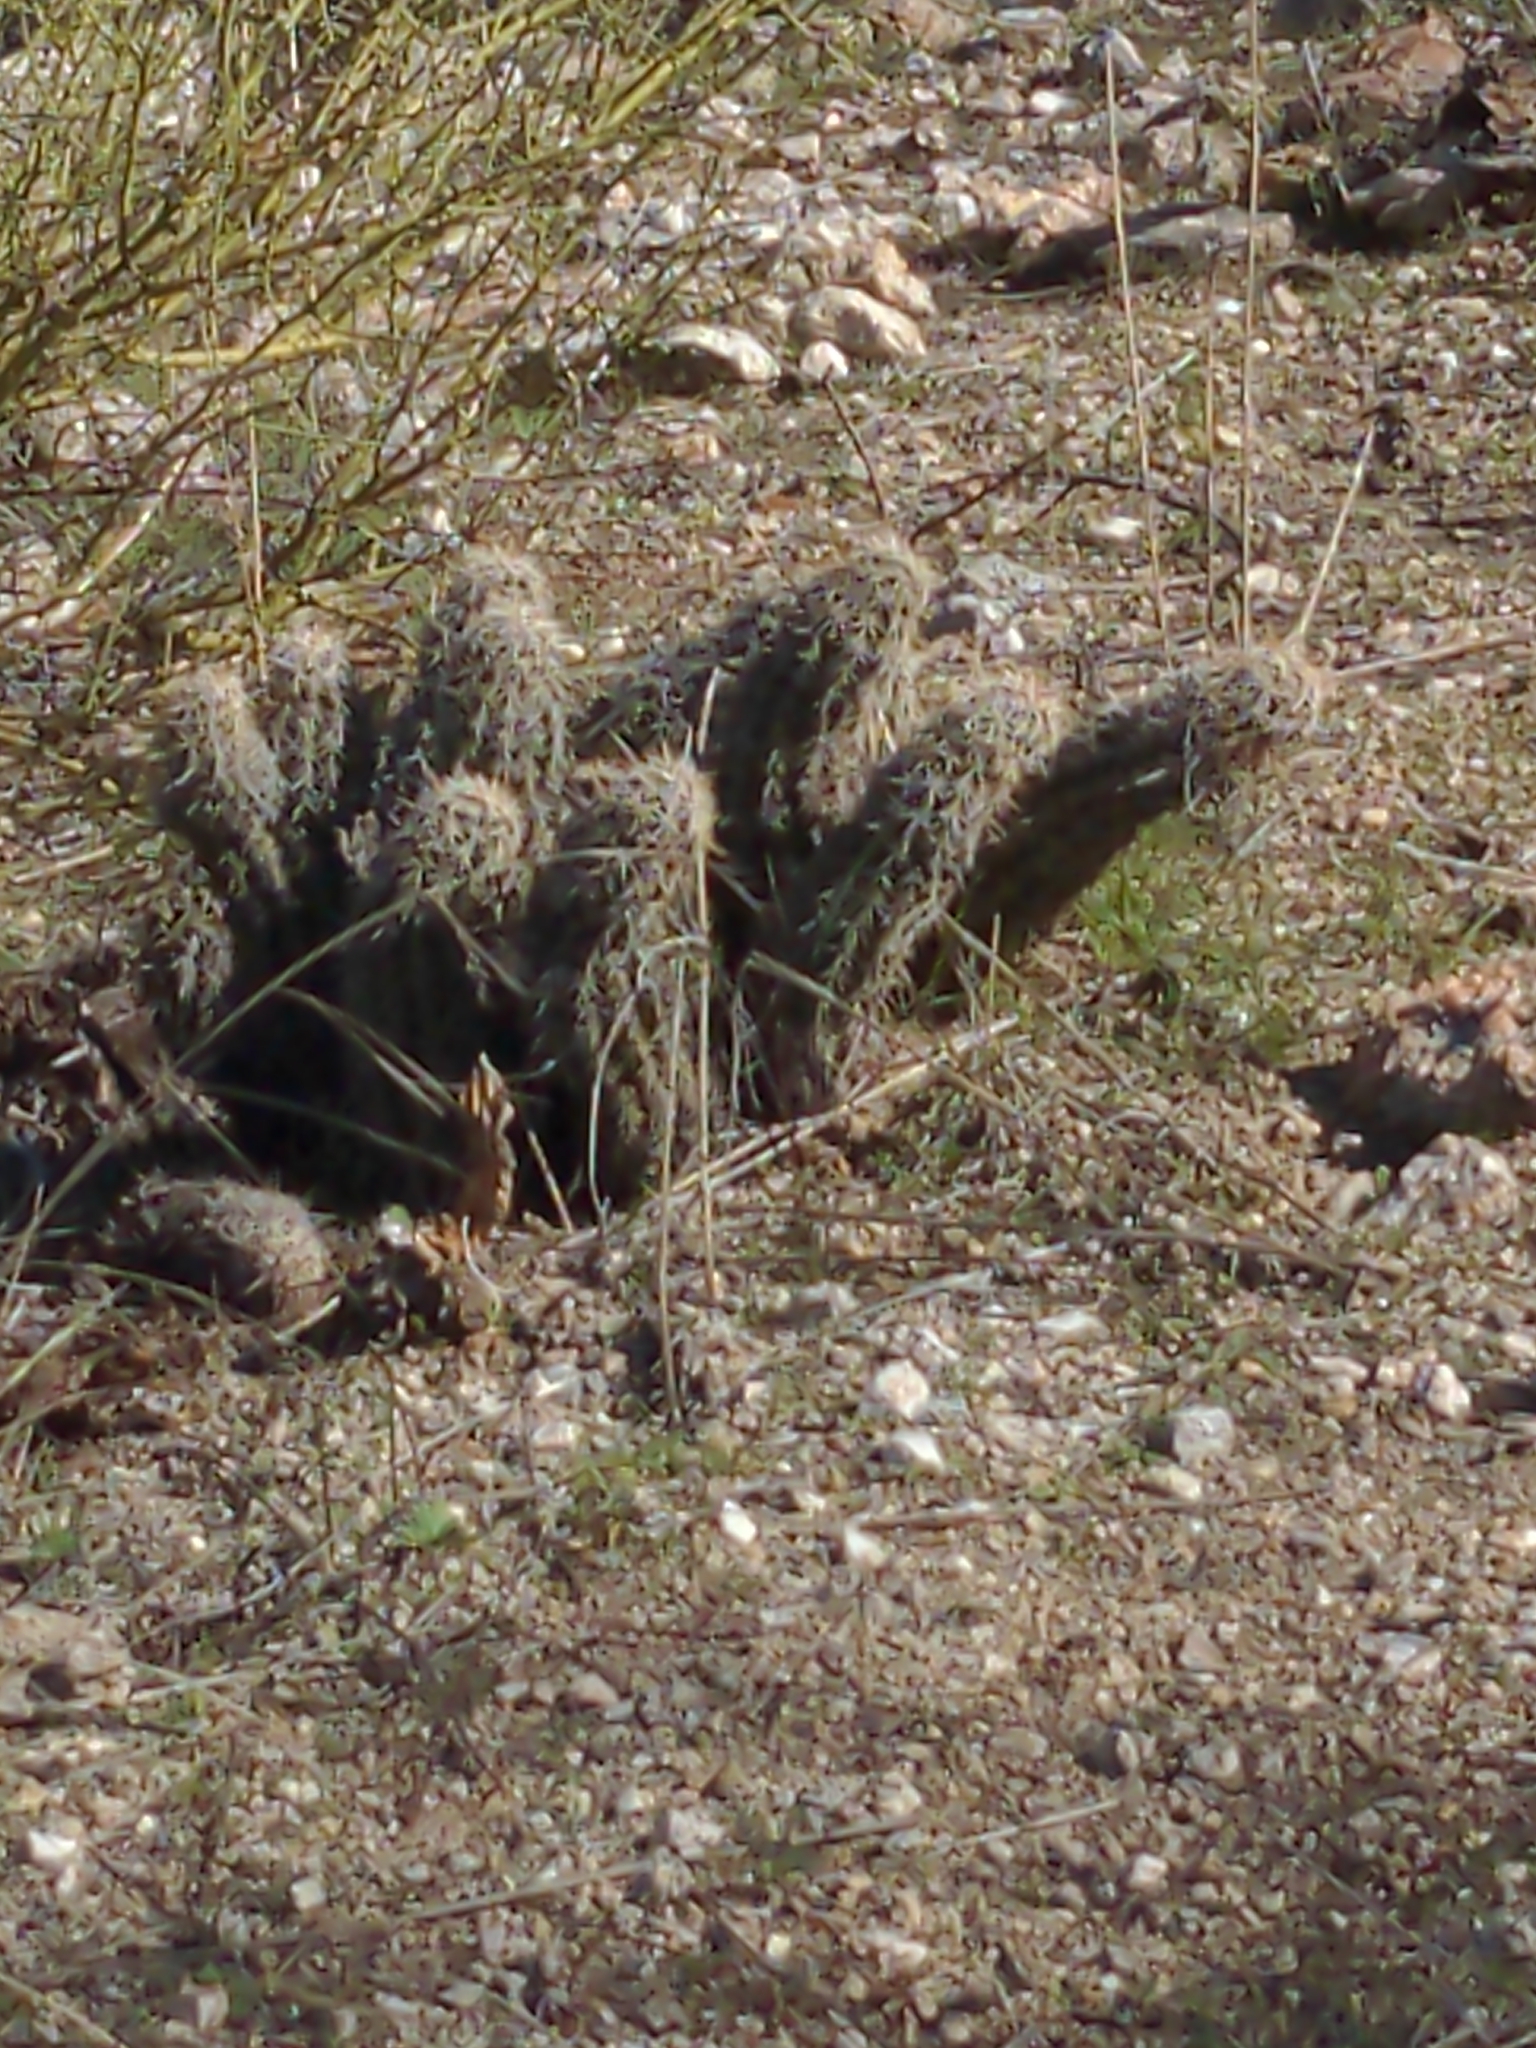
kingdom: Plantae
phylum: Tracheophyta
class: Magnoliopsida
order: Caryophyllales
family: Cactaceae
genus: Echinocereus
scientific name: Echinocereus fasciculatus
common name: Bundle hedgehog
